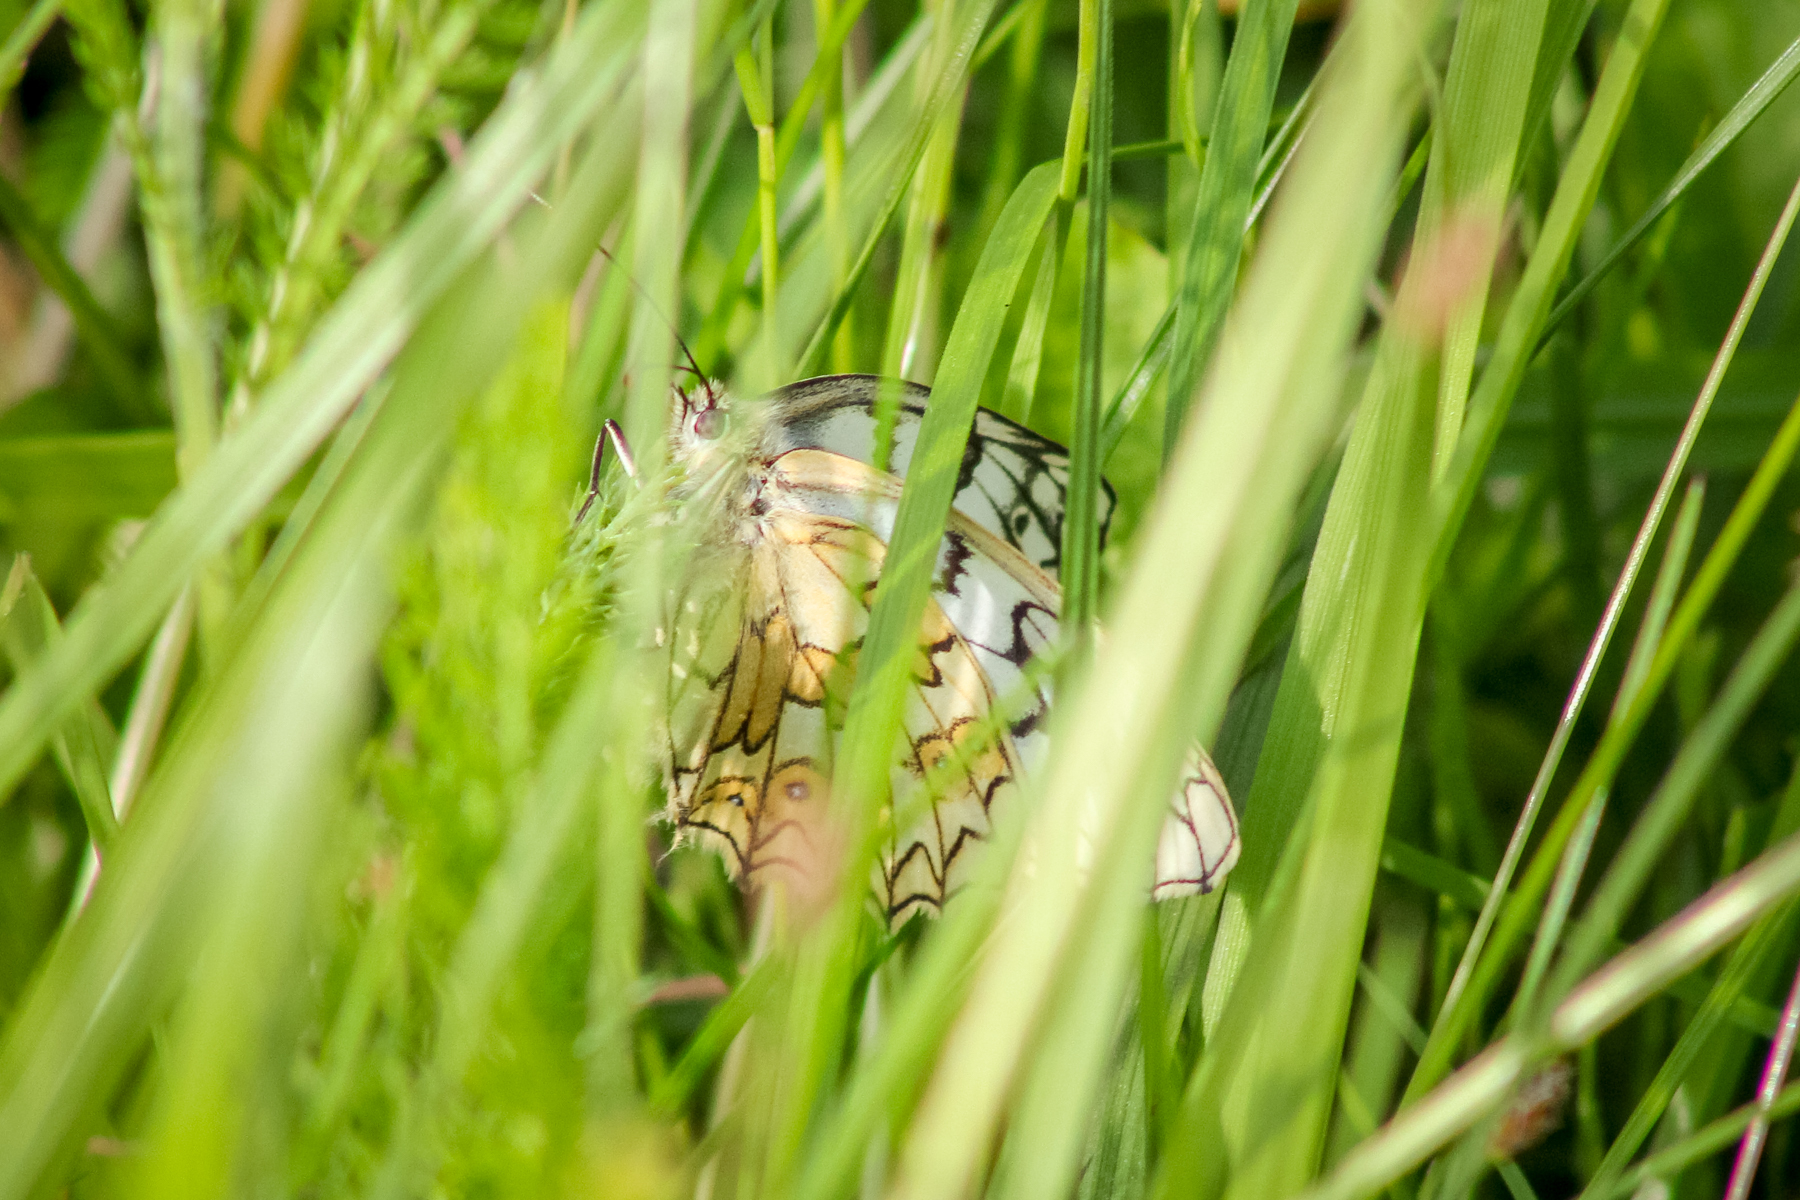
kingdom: Animalia
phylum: Arthropoda
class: Insecta
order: Lepidoptera
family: Nymphalidae
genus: Melanargia
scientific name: Melanargia japygia
